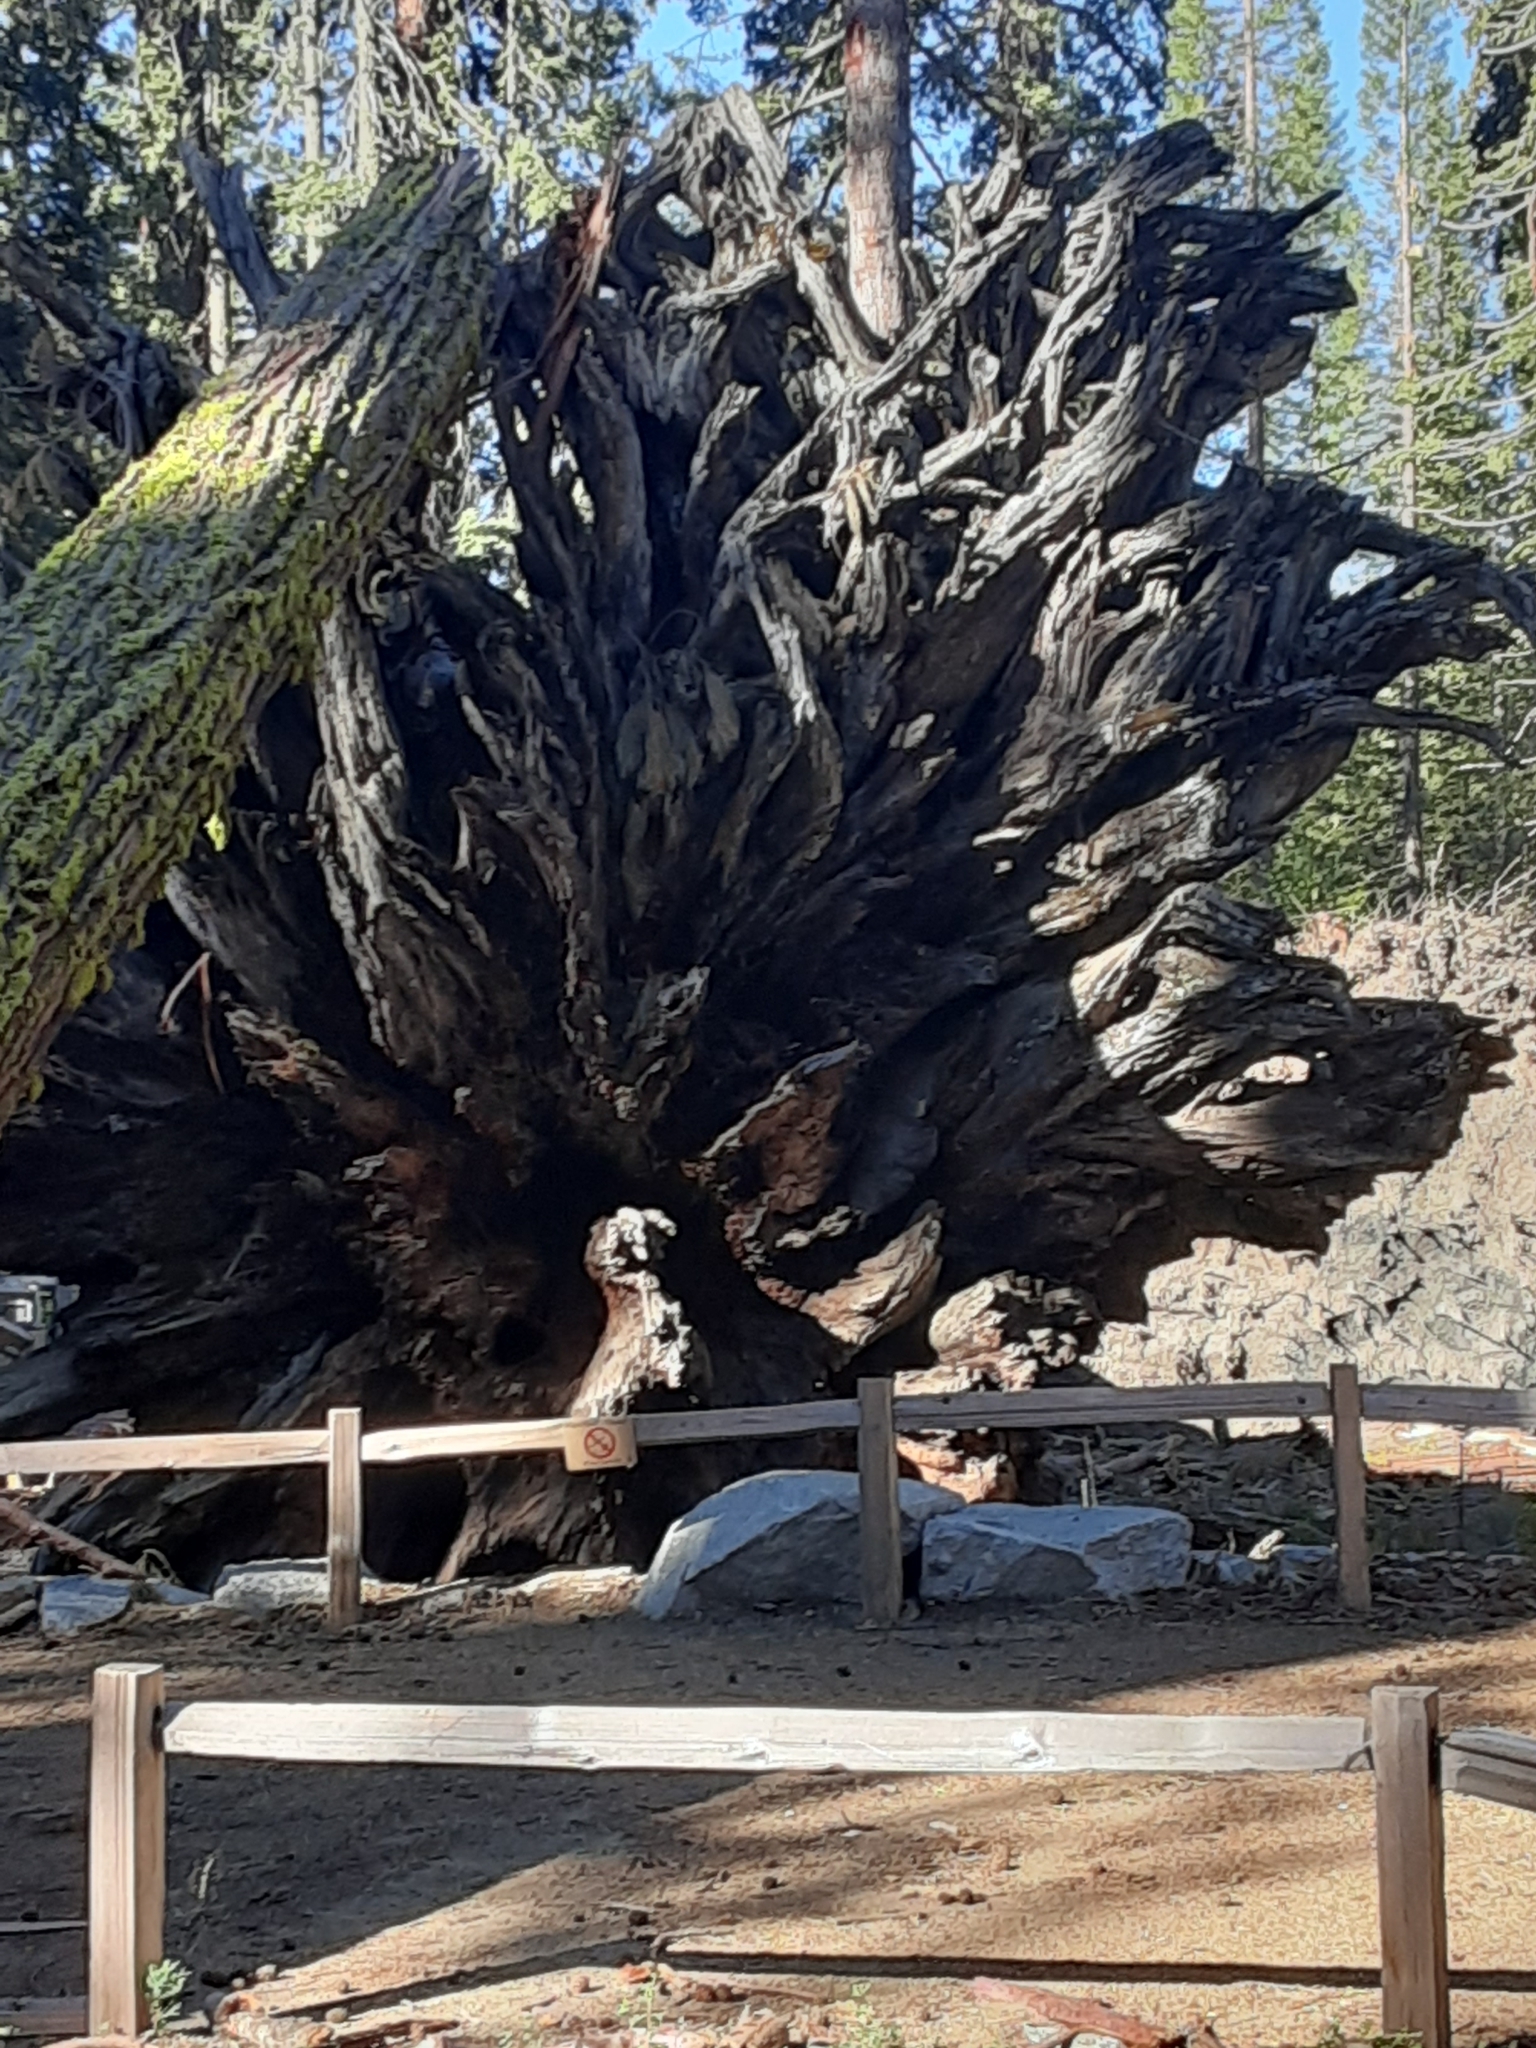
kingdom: Plantae
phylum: Tracheophyta
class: Pinopsida
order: Pinales
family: Cupressaceae
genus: Sequoiadendron
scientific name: Sequoiadendron giganteum
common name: Wellingtonia
